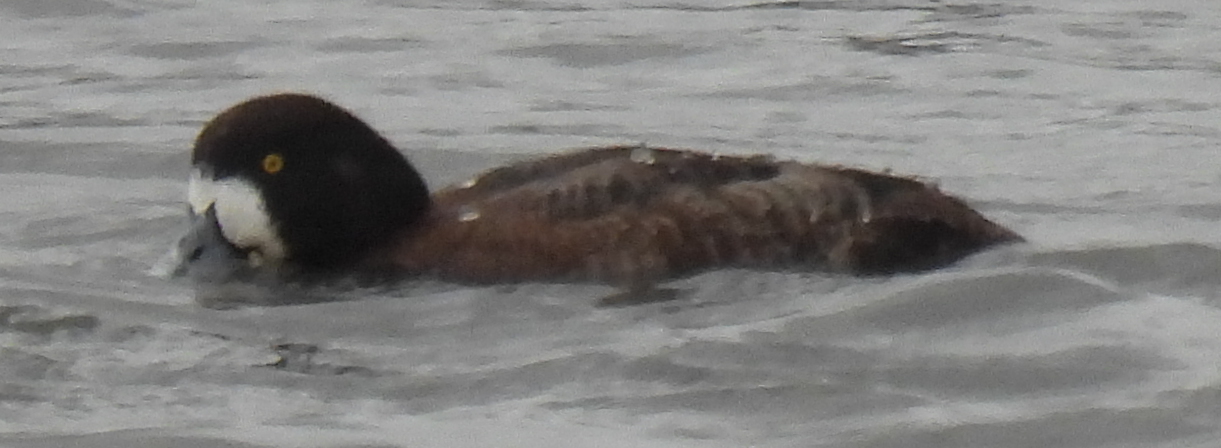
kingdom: Animalia
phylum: Chordata
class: Aves
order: Anseriformes
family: Anatidae
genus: Aythya
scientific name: Aythya marila
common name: Greater scaup
